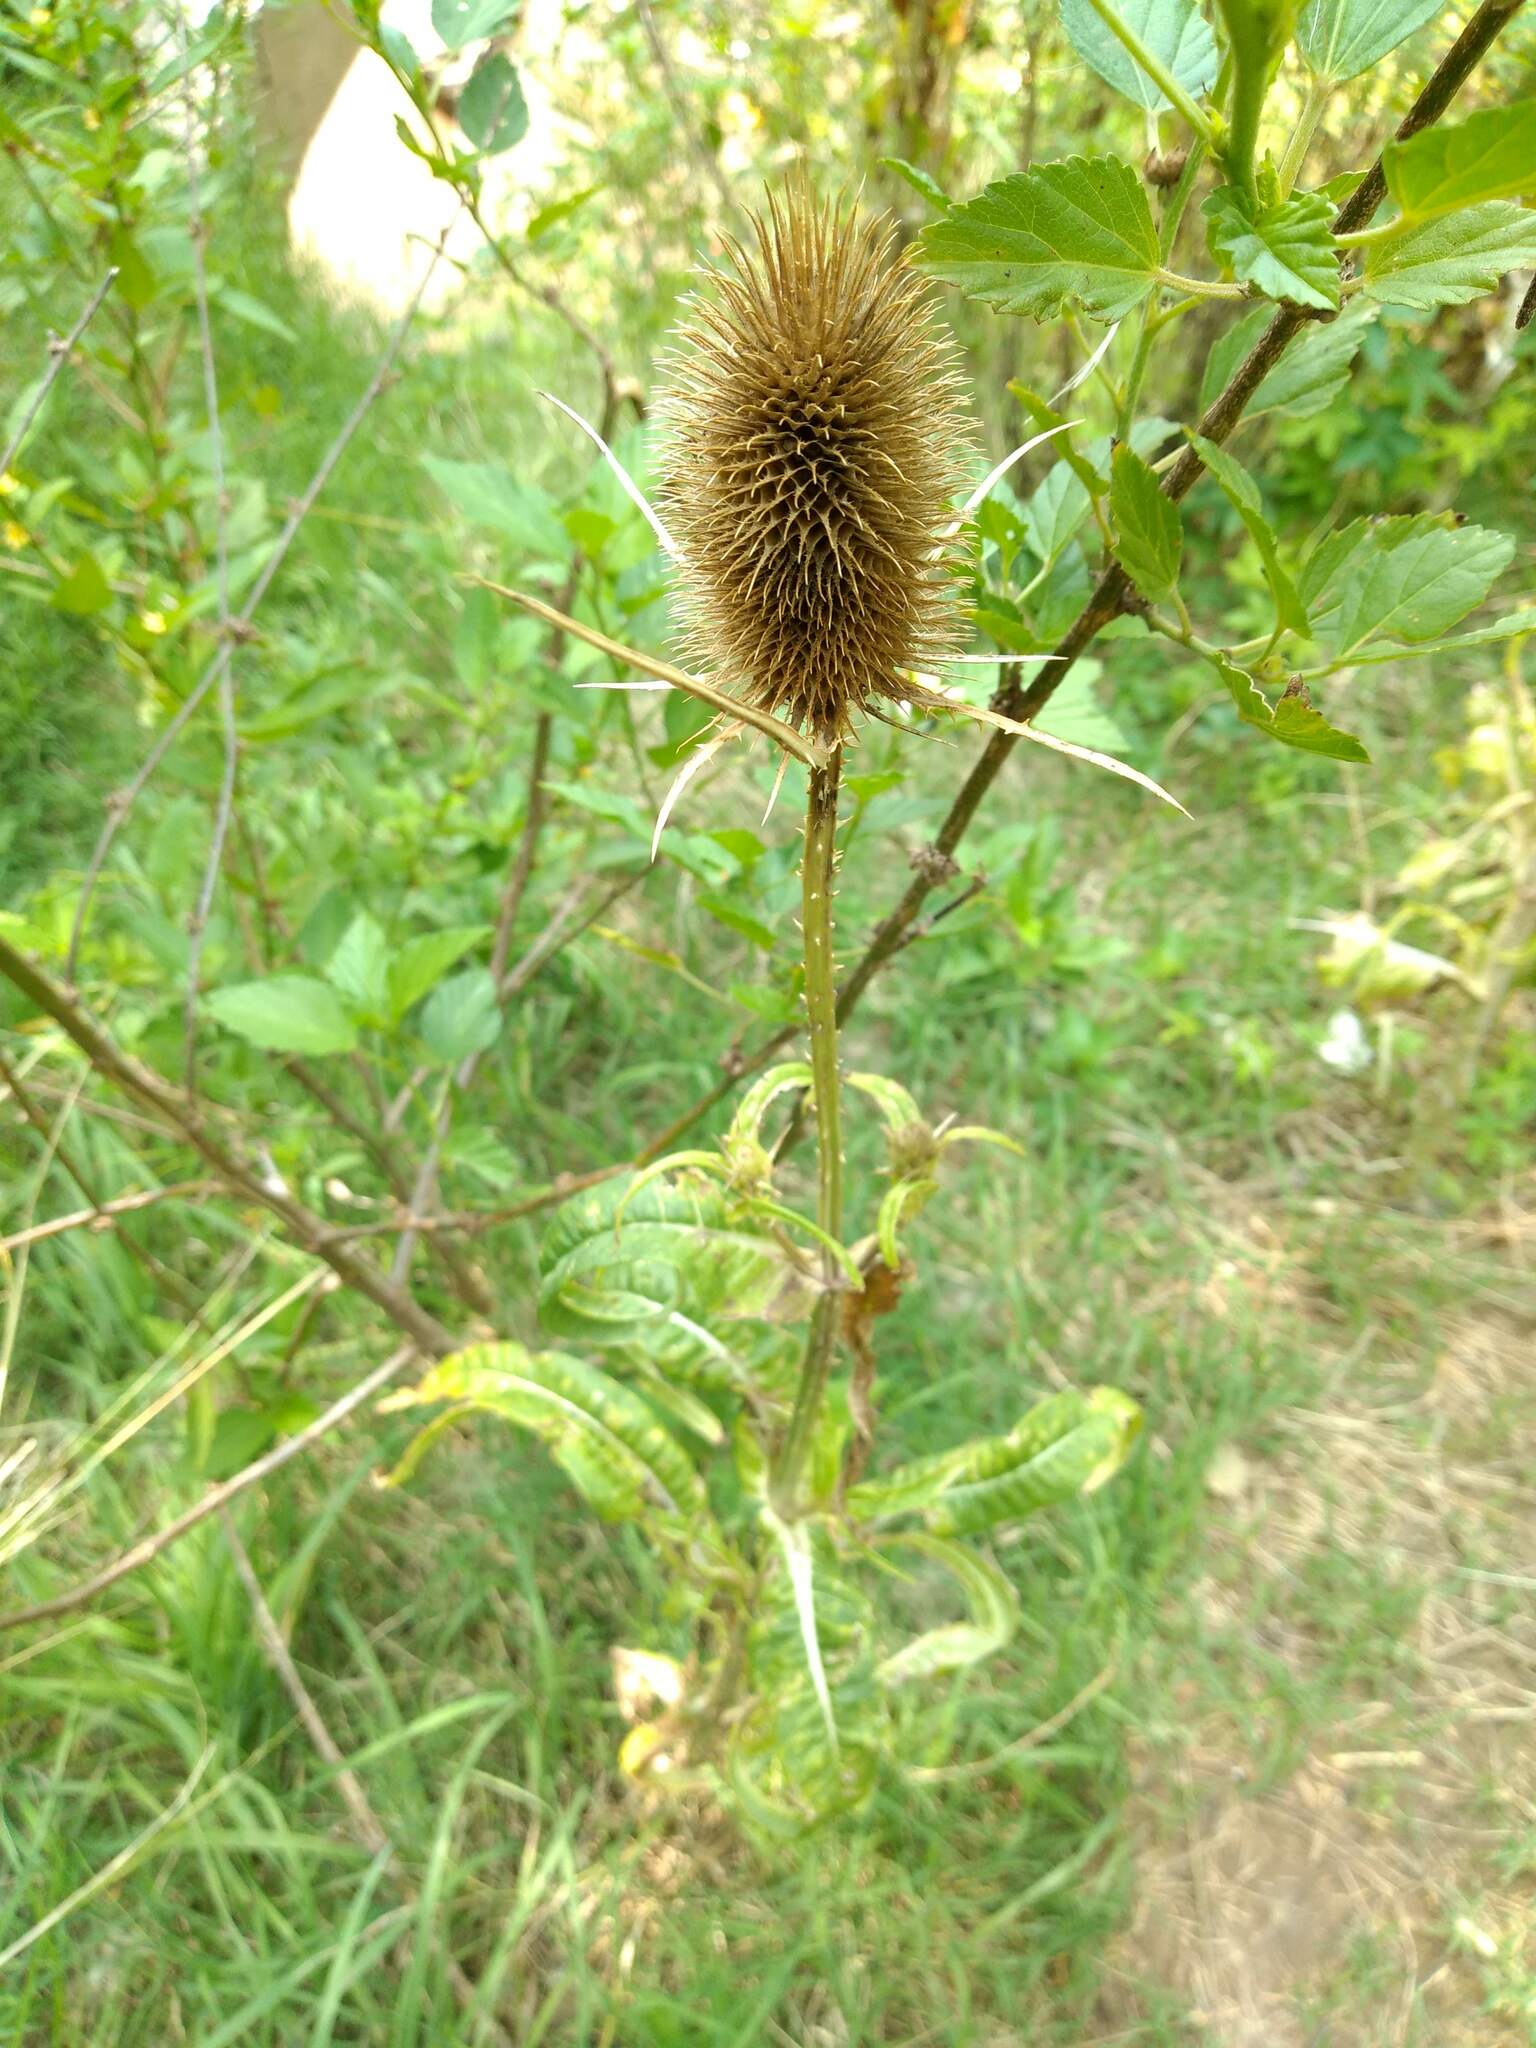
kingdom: Plantae
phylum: Tracheophyta
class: Magnoliopsida
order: Dipsacales
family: Caprifoliaceae
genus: Dipsacus
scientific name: Dipsacus fullonum
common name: Teasel
